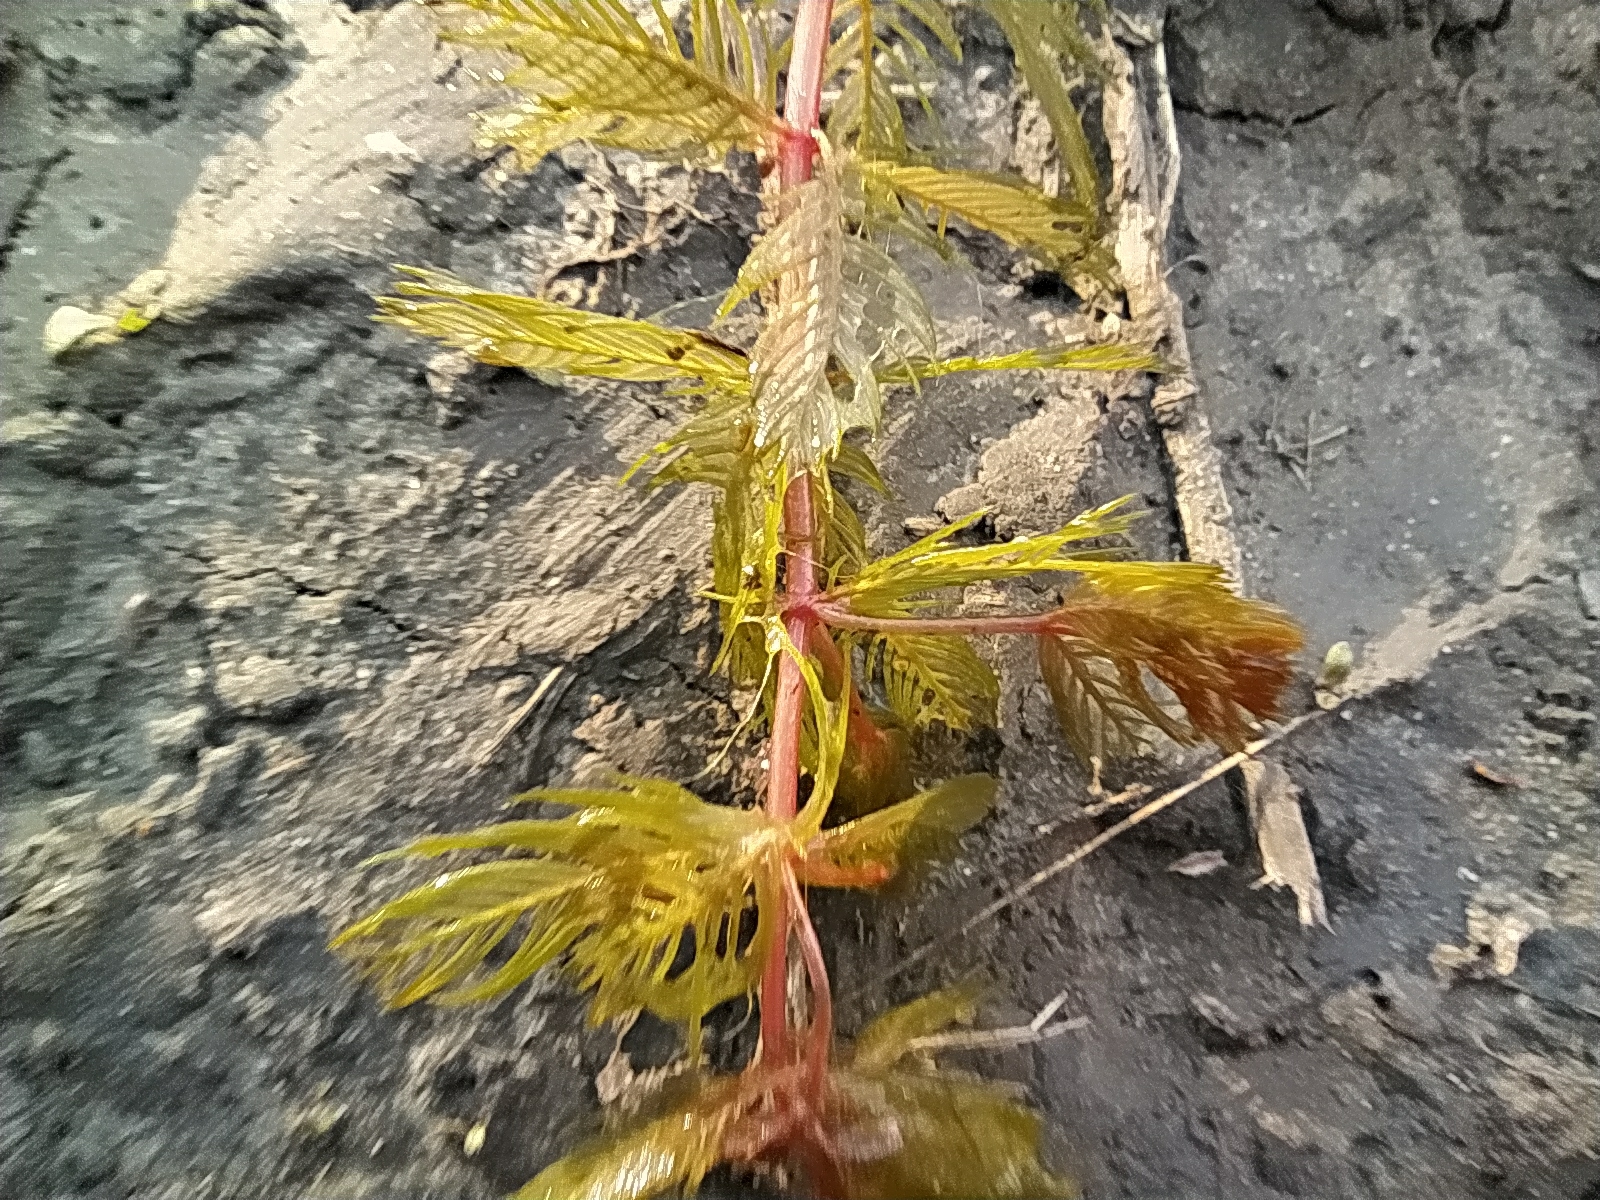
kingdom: Plantae
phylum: Tracheophyta
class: Magnoliopsida
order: Saxifragales
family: Haloragaceae
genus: Myriophyllum
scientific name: Myriophyllum spicatum
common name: Spiked water-milfoil
